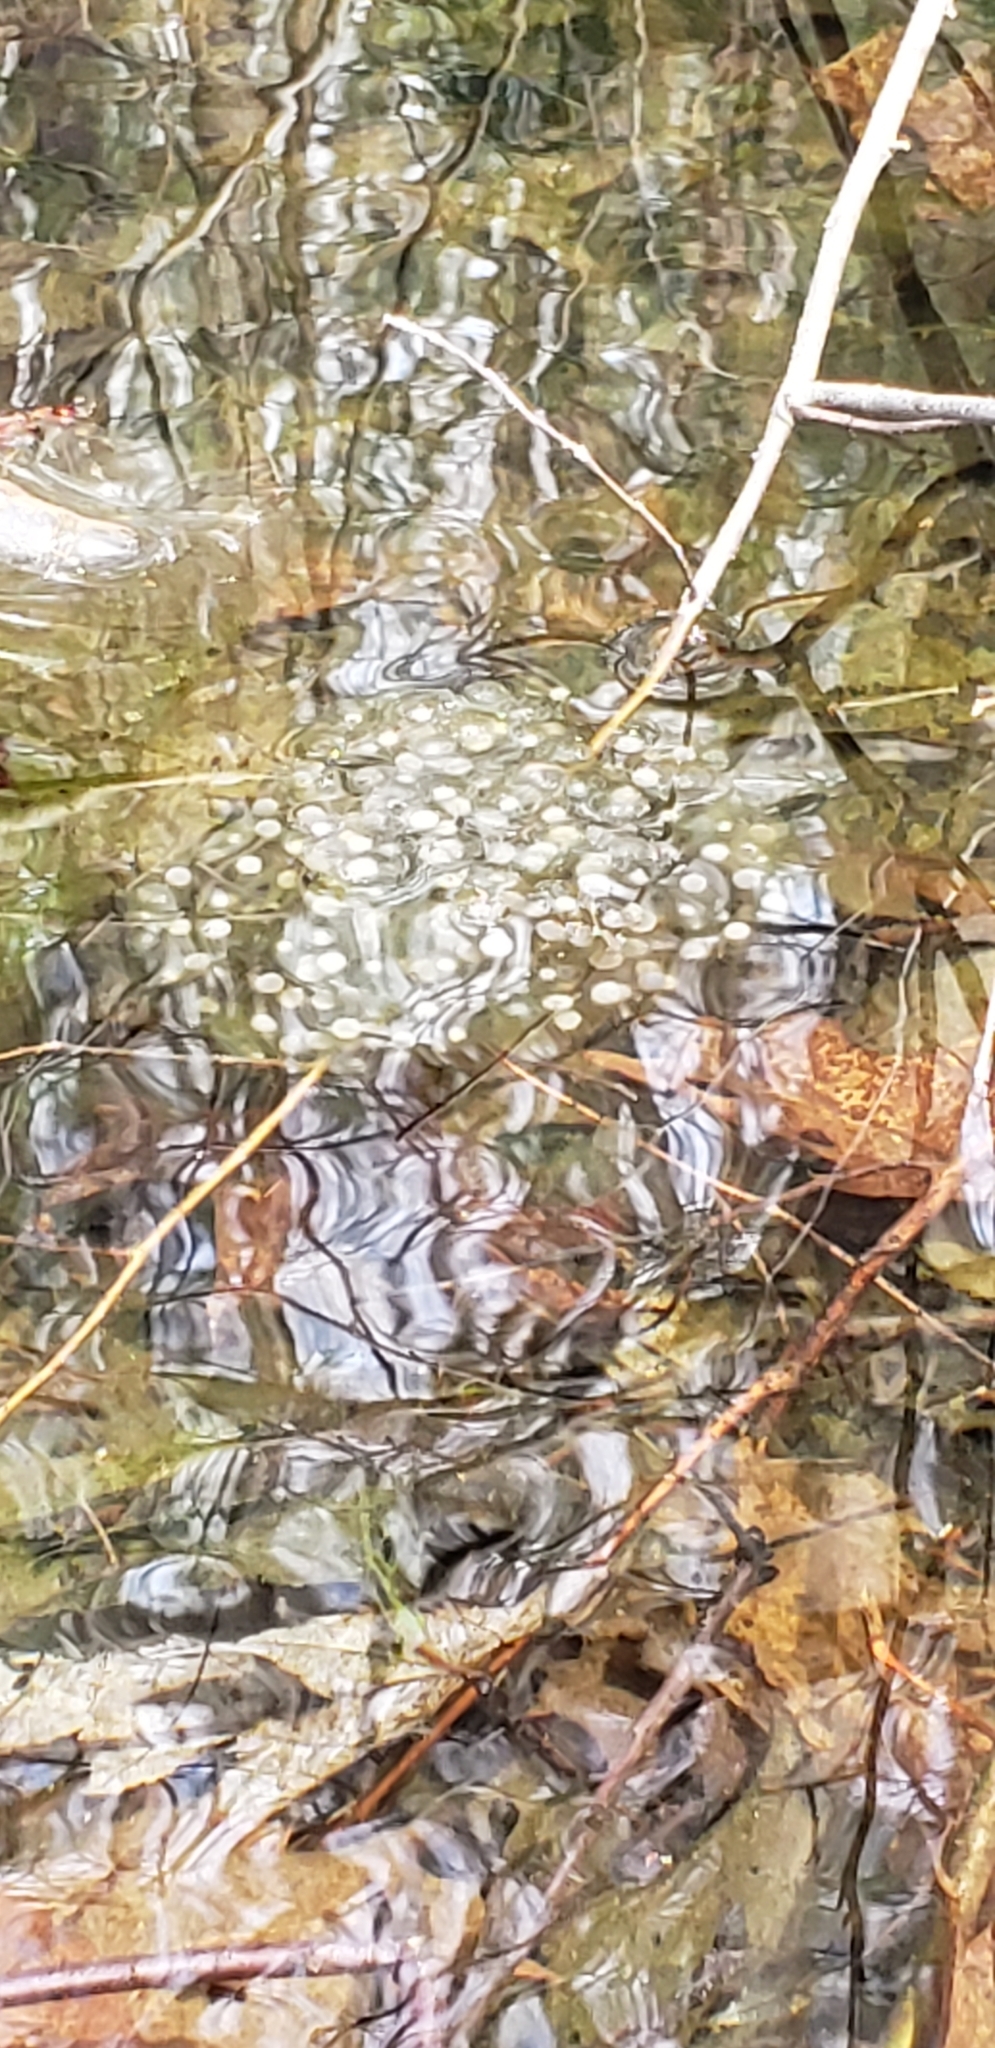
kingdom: Animalia
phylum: Chordata
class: Amphibia
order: Anura
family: Ranidae
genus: Lithobates
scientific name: Lithobates sylvaticus
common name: Wood frog
